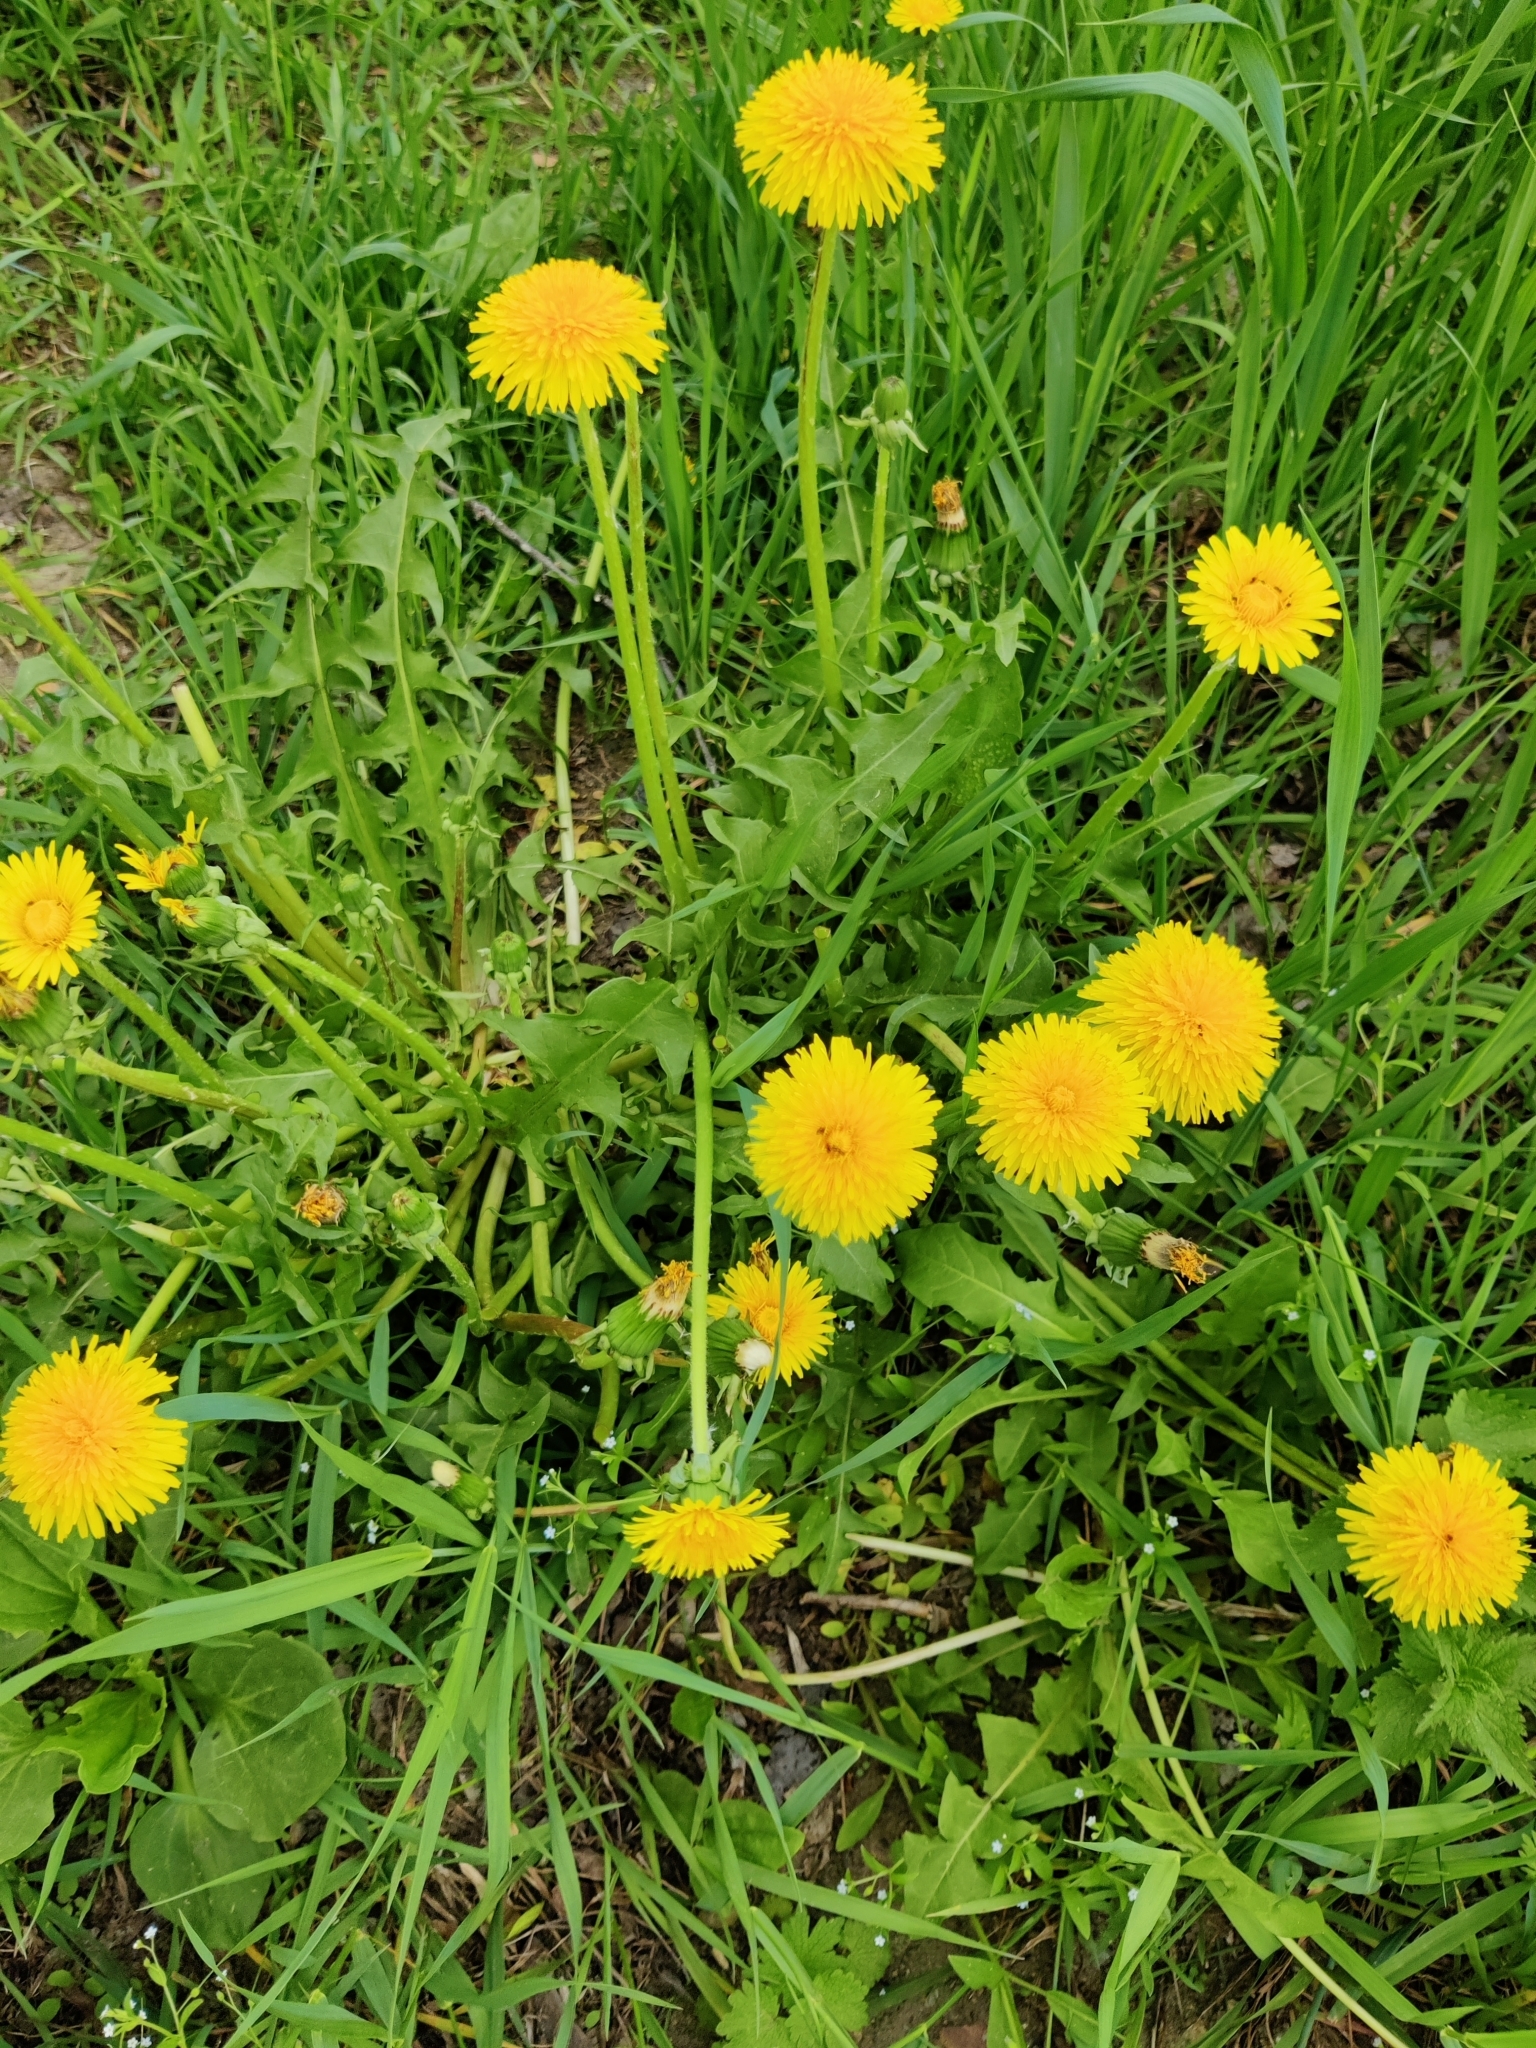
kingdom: Plantae
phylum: Tracheophyta
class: Magnoliopsida
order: Asterales
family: Asteraceae
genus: Taraxacum
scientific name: Taraxacum officinale
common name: Common dandelion
